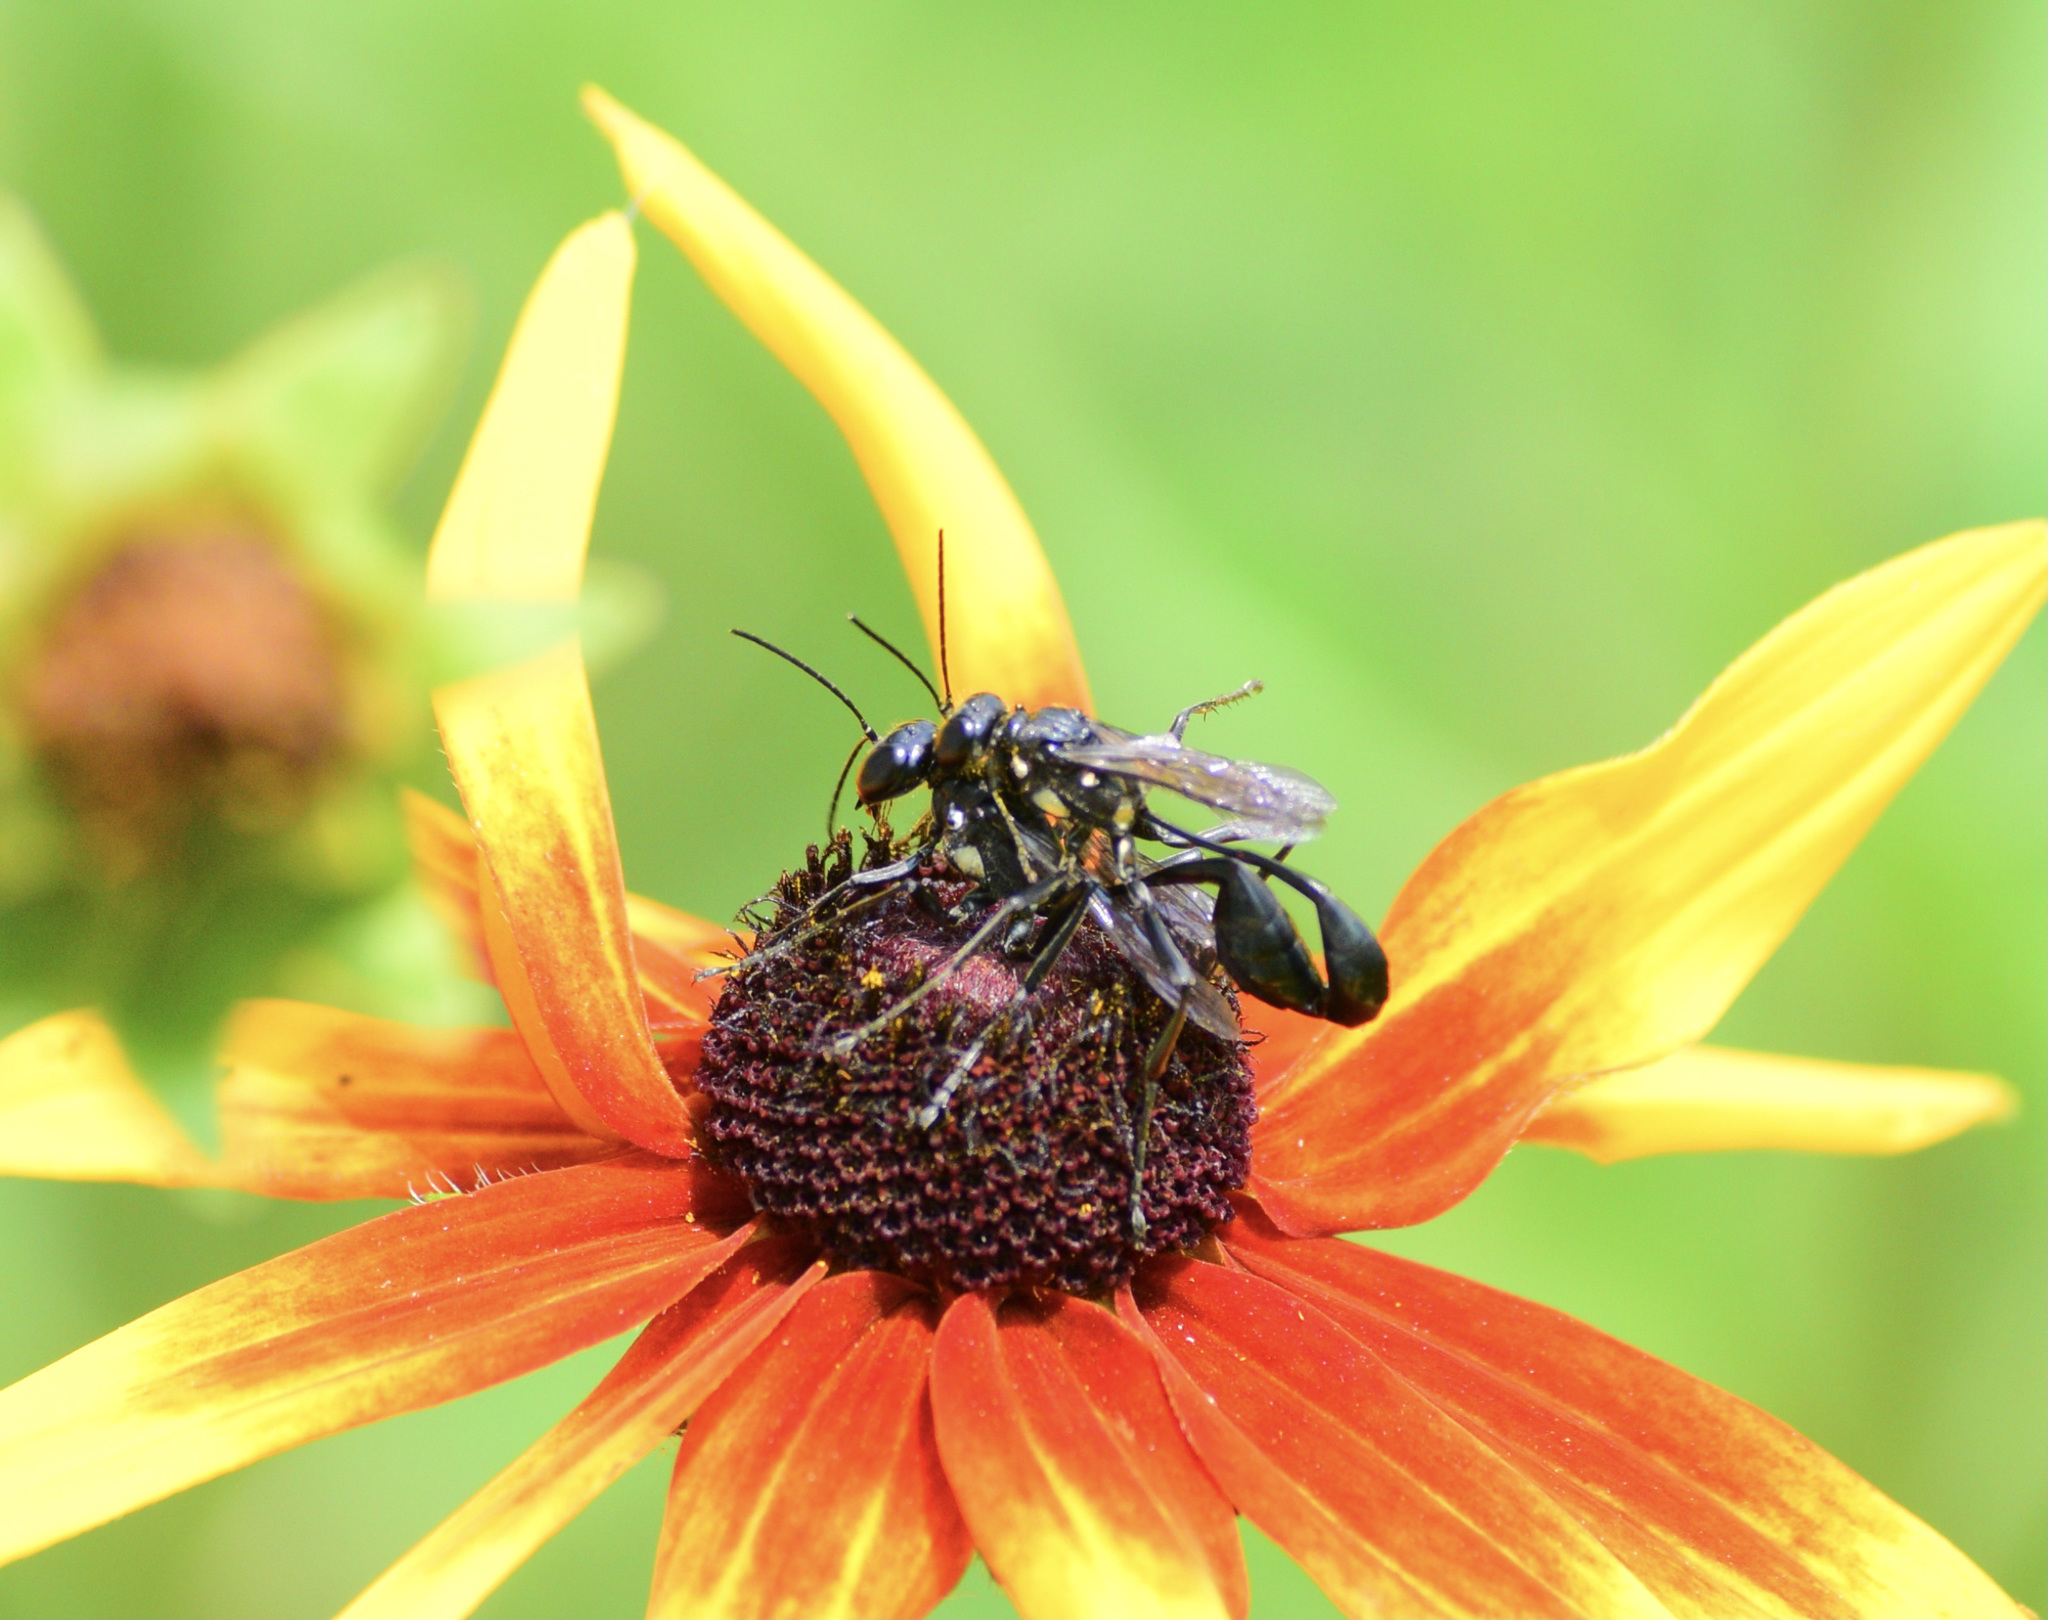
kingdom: Animalia
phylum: Arthropoda
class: Insecta
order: Hymenoptera
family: Sphecidae
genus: Eremnophila
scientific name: Eremnophila aureonotata
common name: Gold-marked thread-waisted wasp
